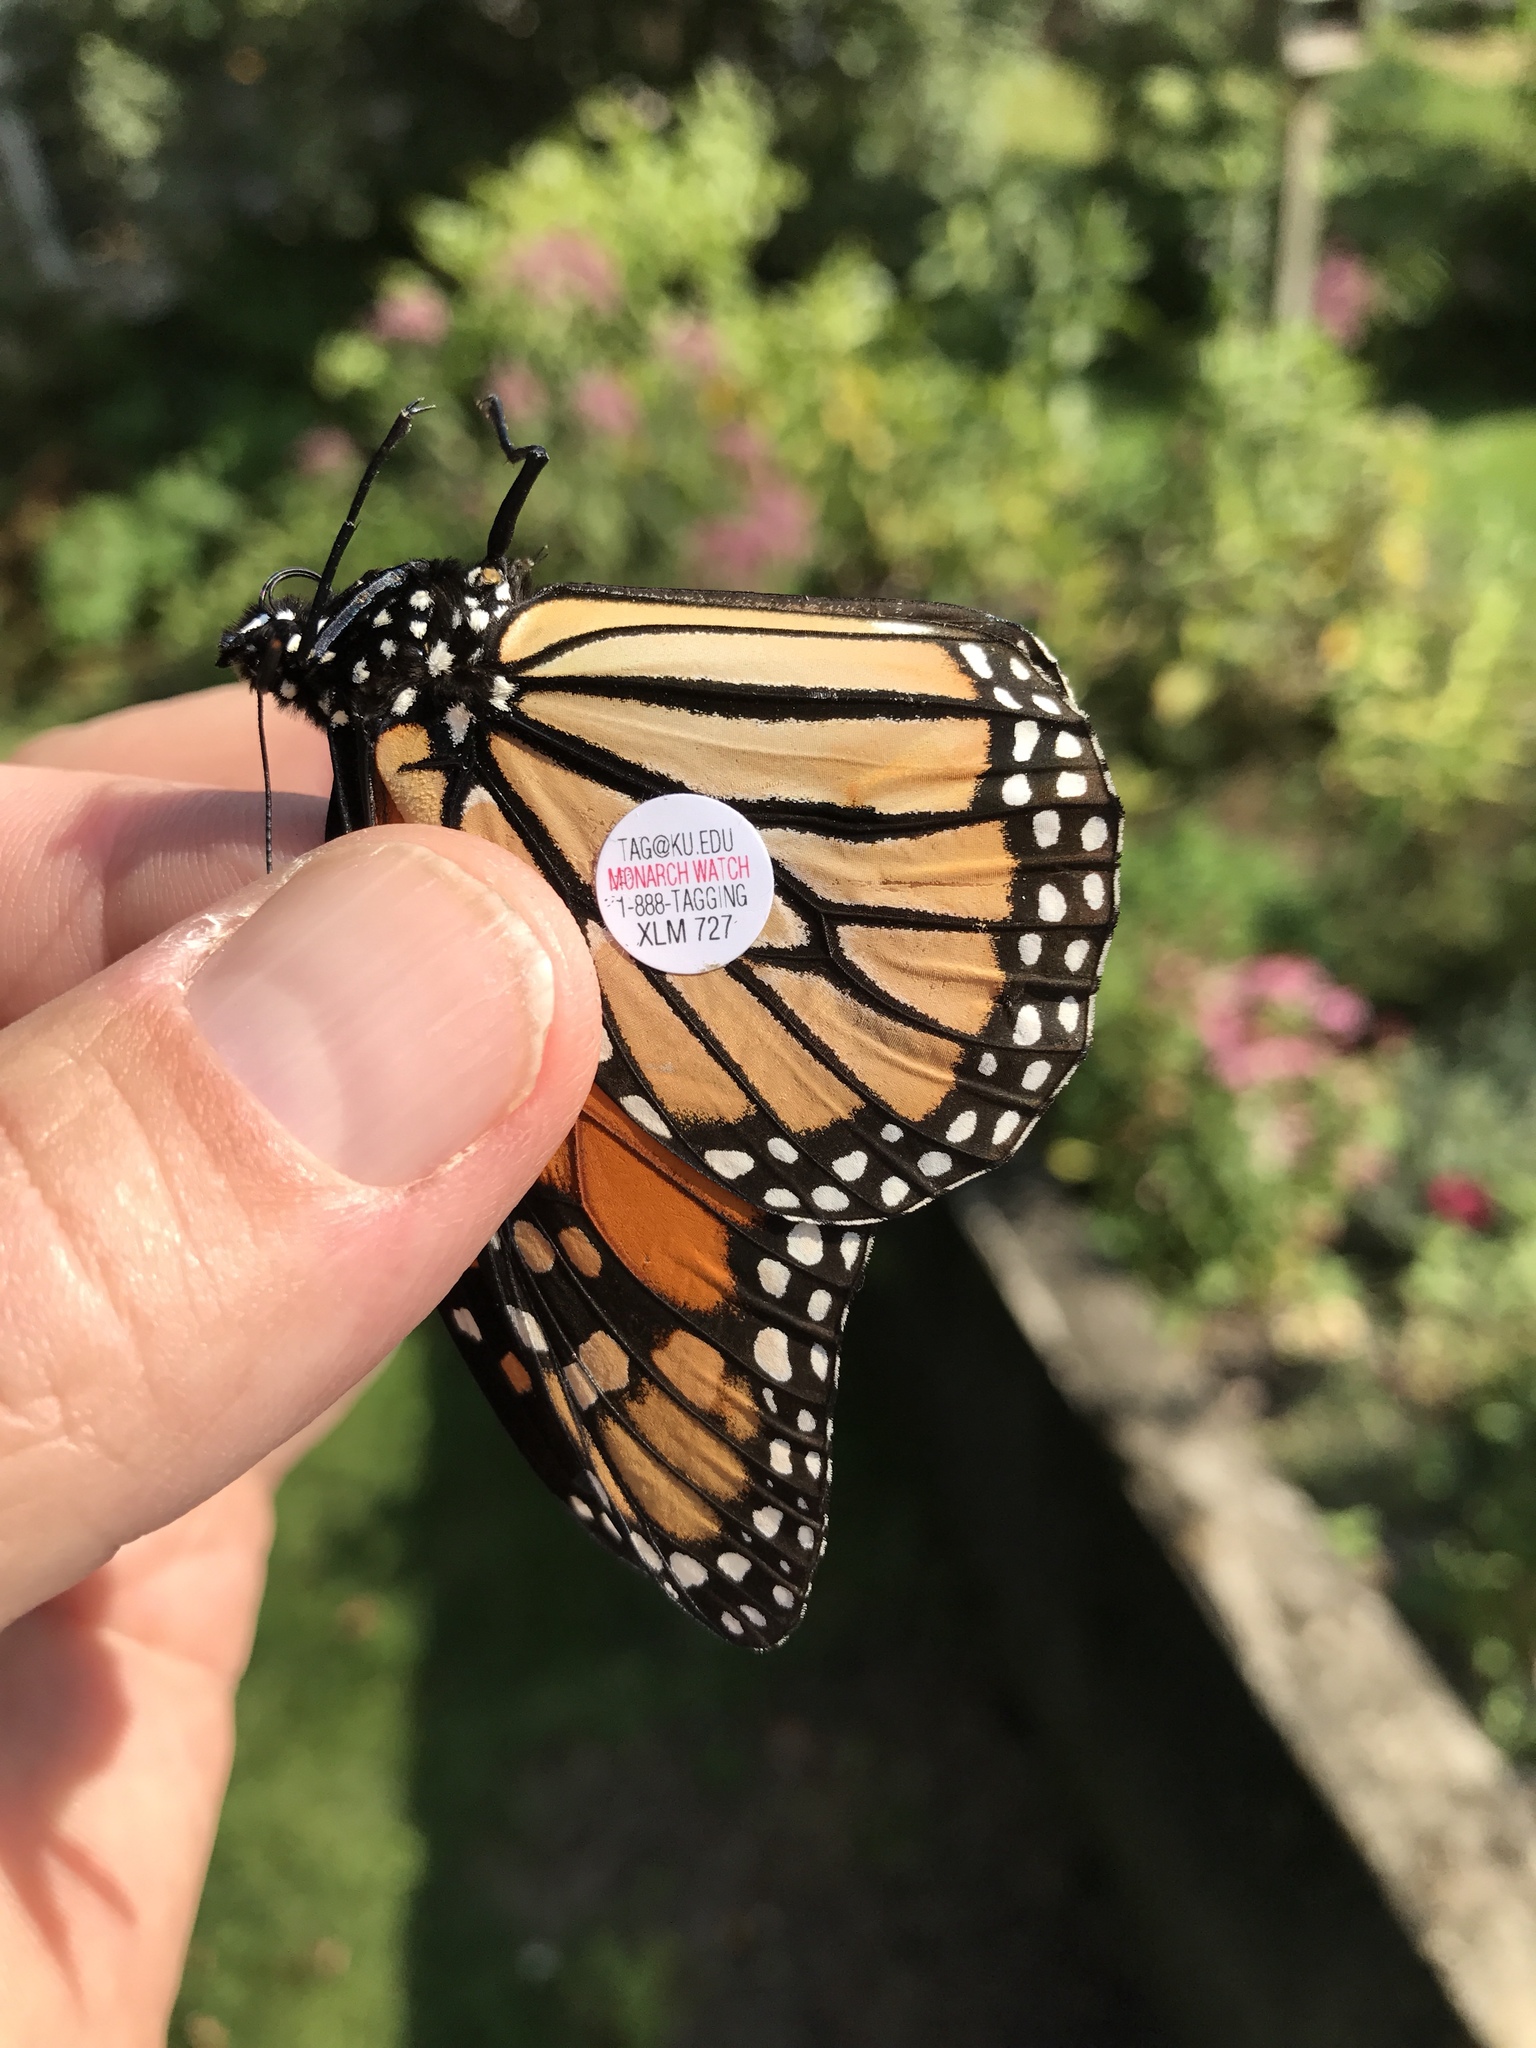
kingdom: Animalia
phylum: Arthropoda
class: Insecta
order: Lepidoptera
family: Nymphalidae
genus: Danaus
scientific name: Danaus plexippus
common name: Monarch
